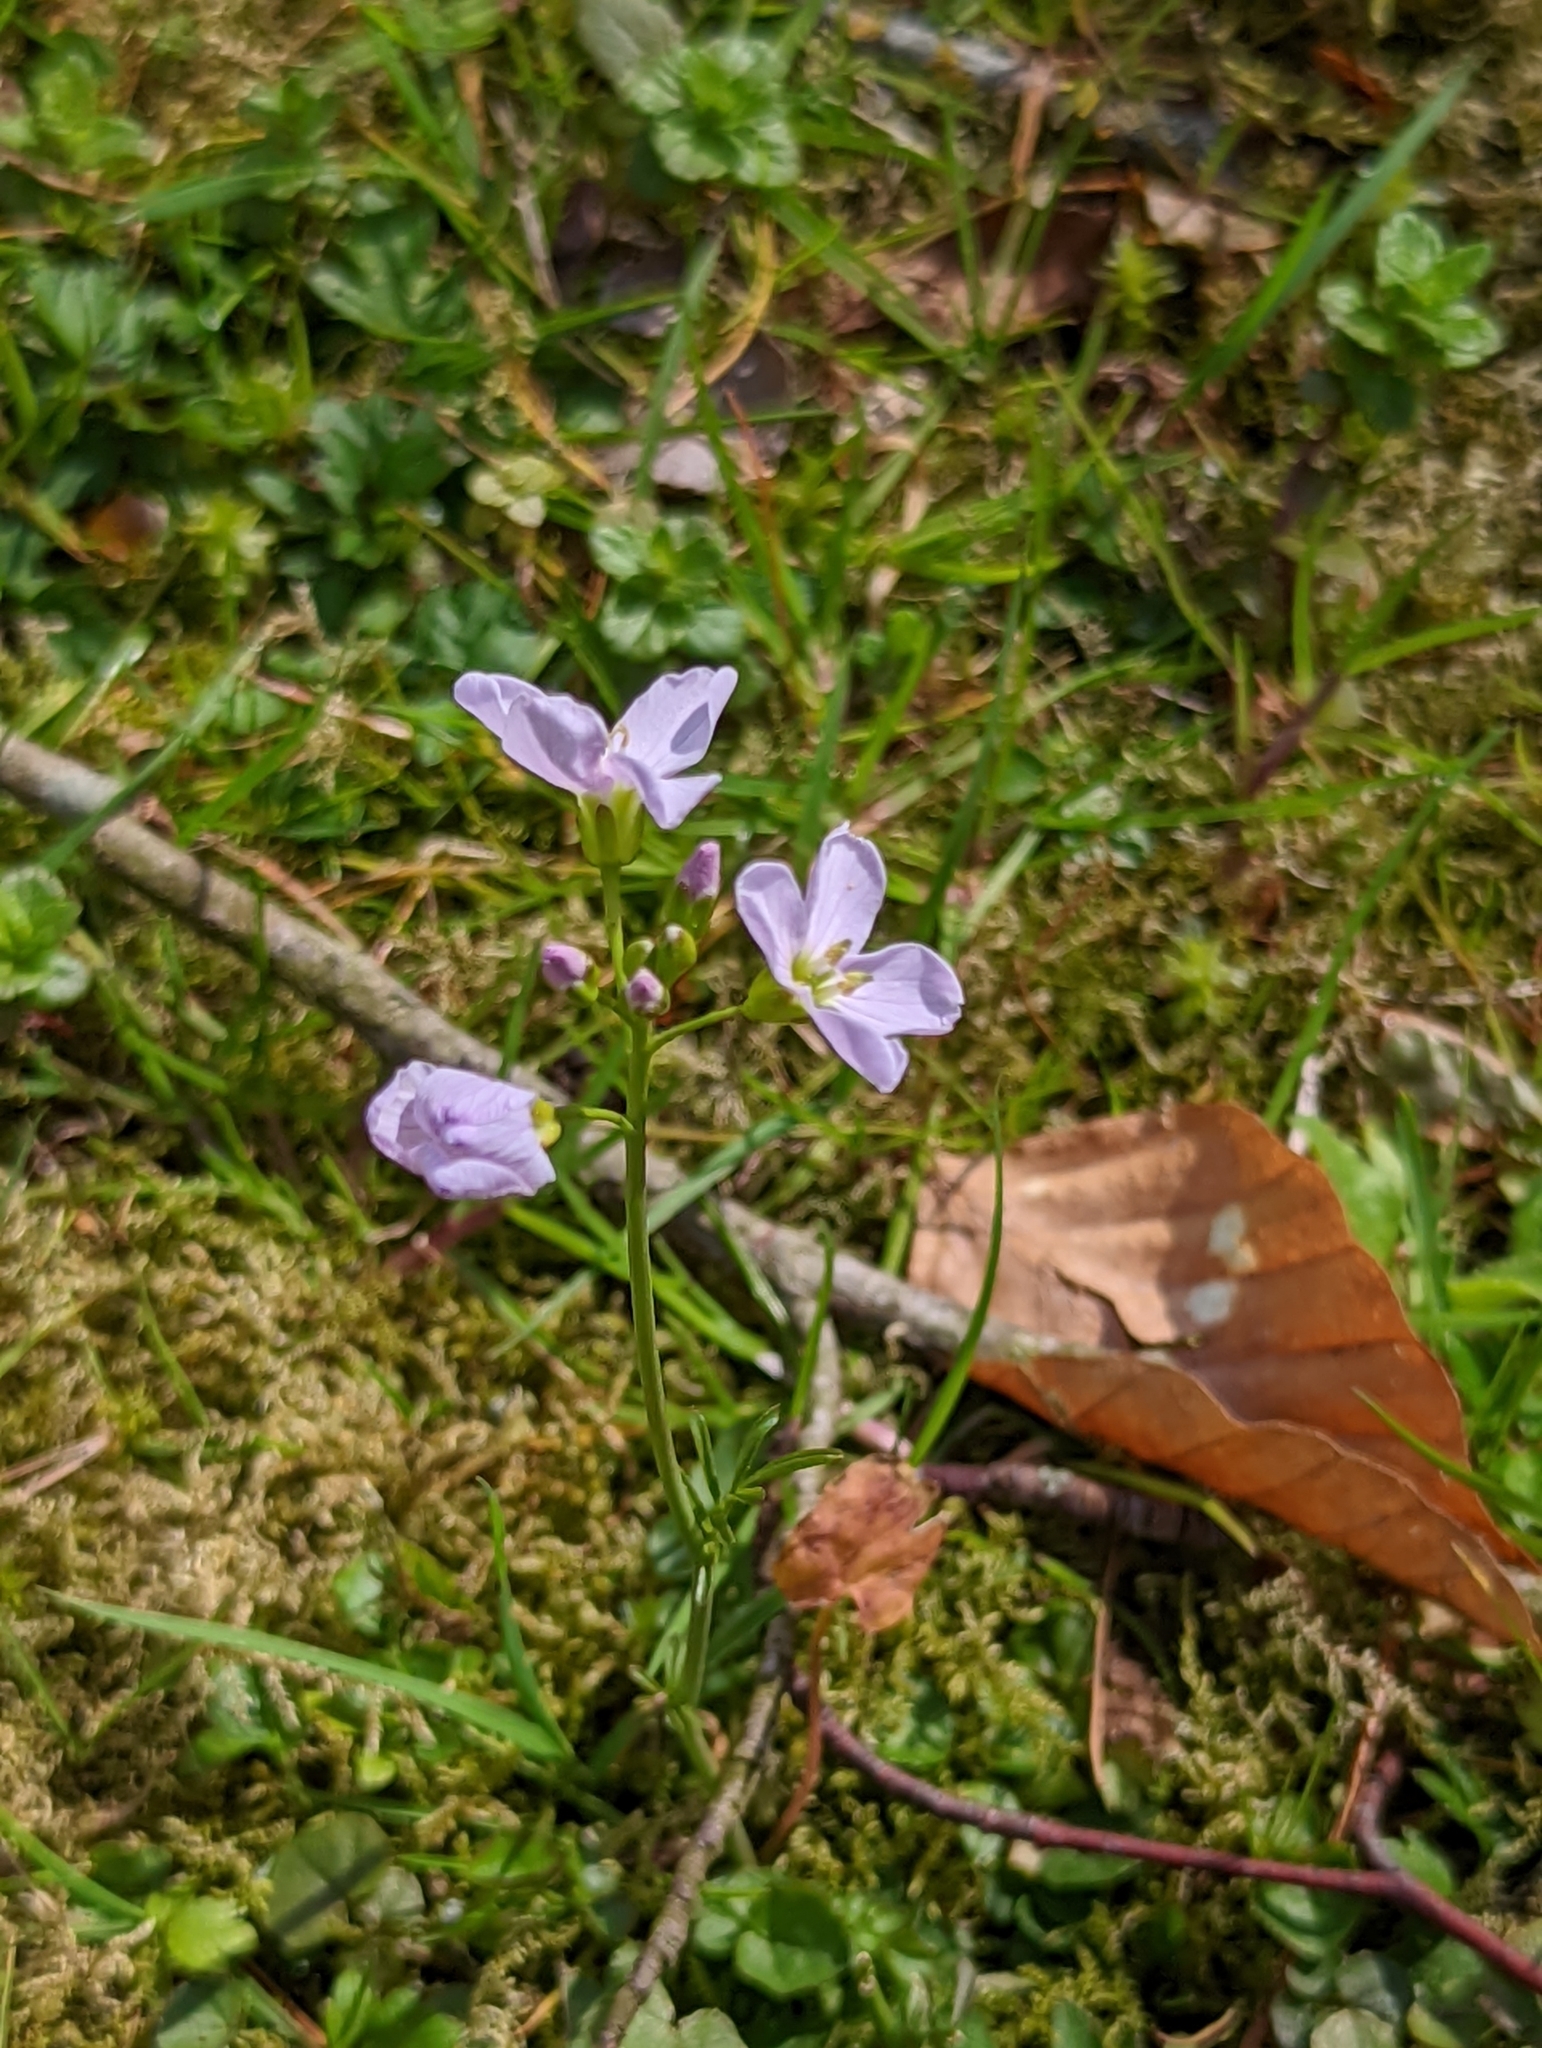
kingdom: Plantae
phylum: Tracheophyta
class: Magnoliopsida
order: Brassicales
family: Brassicaceae
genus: Cardamine
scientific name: Cardamine pratensis
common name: Cuckoo flower
